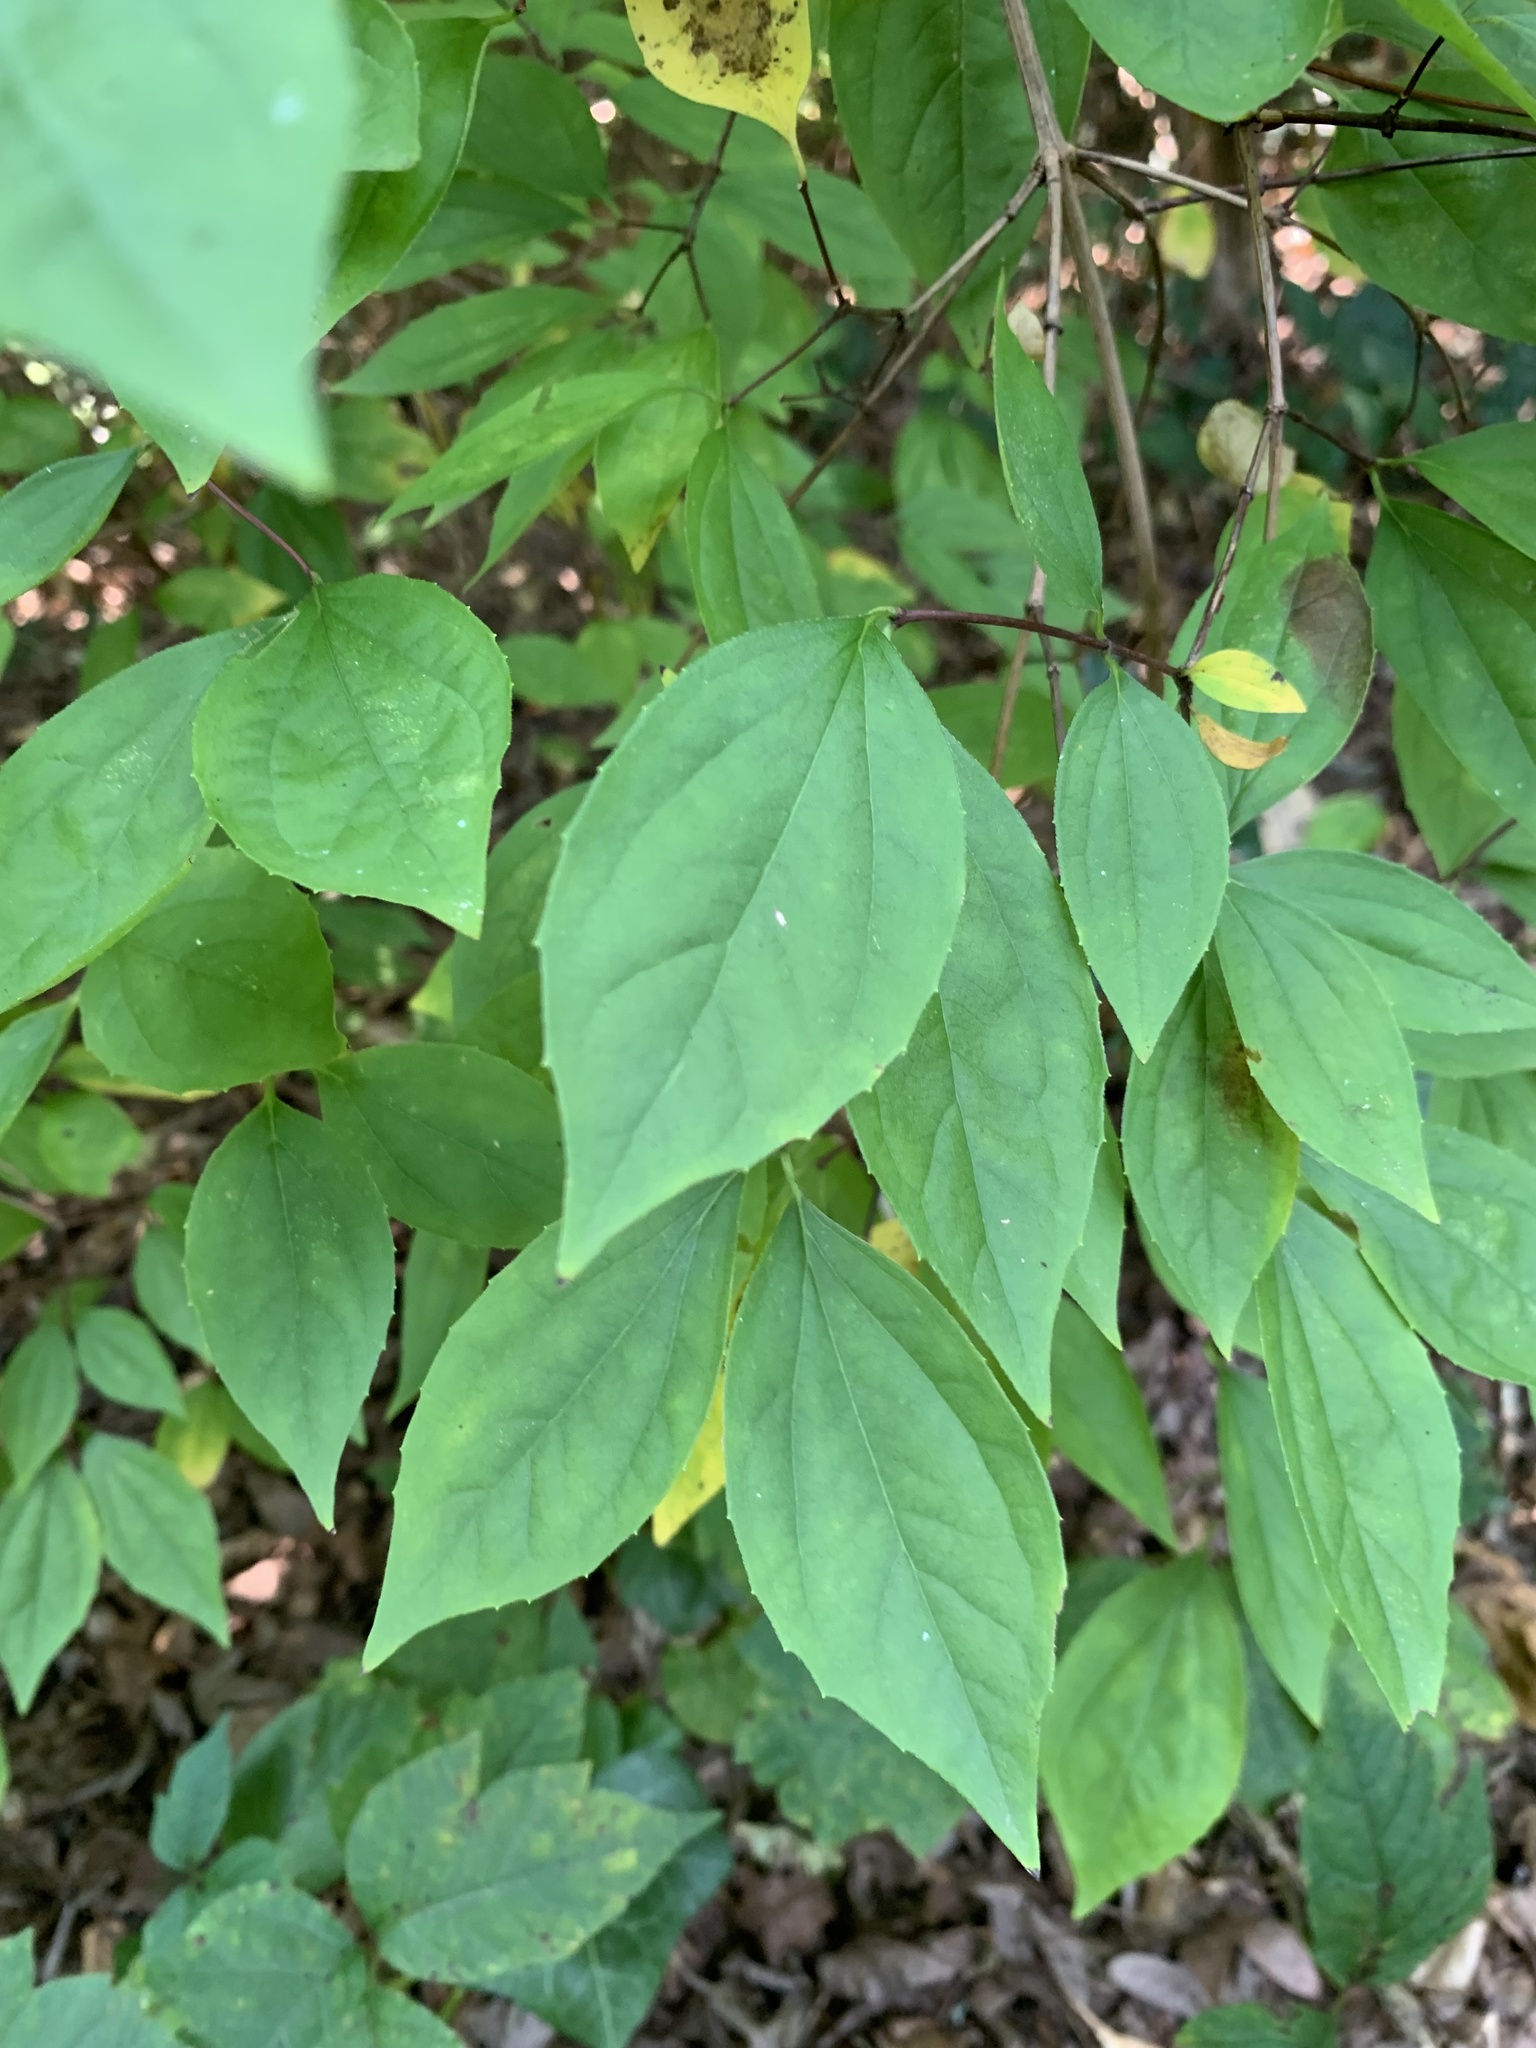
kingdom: Plantae
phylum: Tracheophyta
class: Magnoliopsida
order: Cornales
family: Hydrangeaceae
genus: Philadelphus
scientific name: Philadelphus inodorus
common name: Scentless mock-orange
